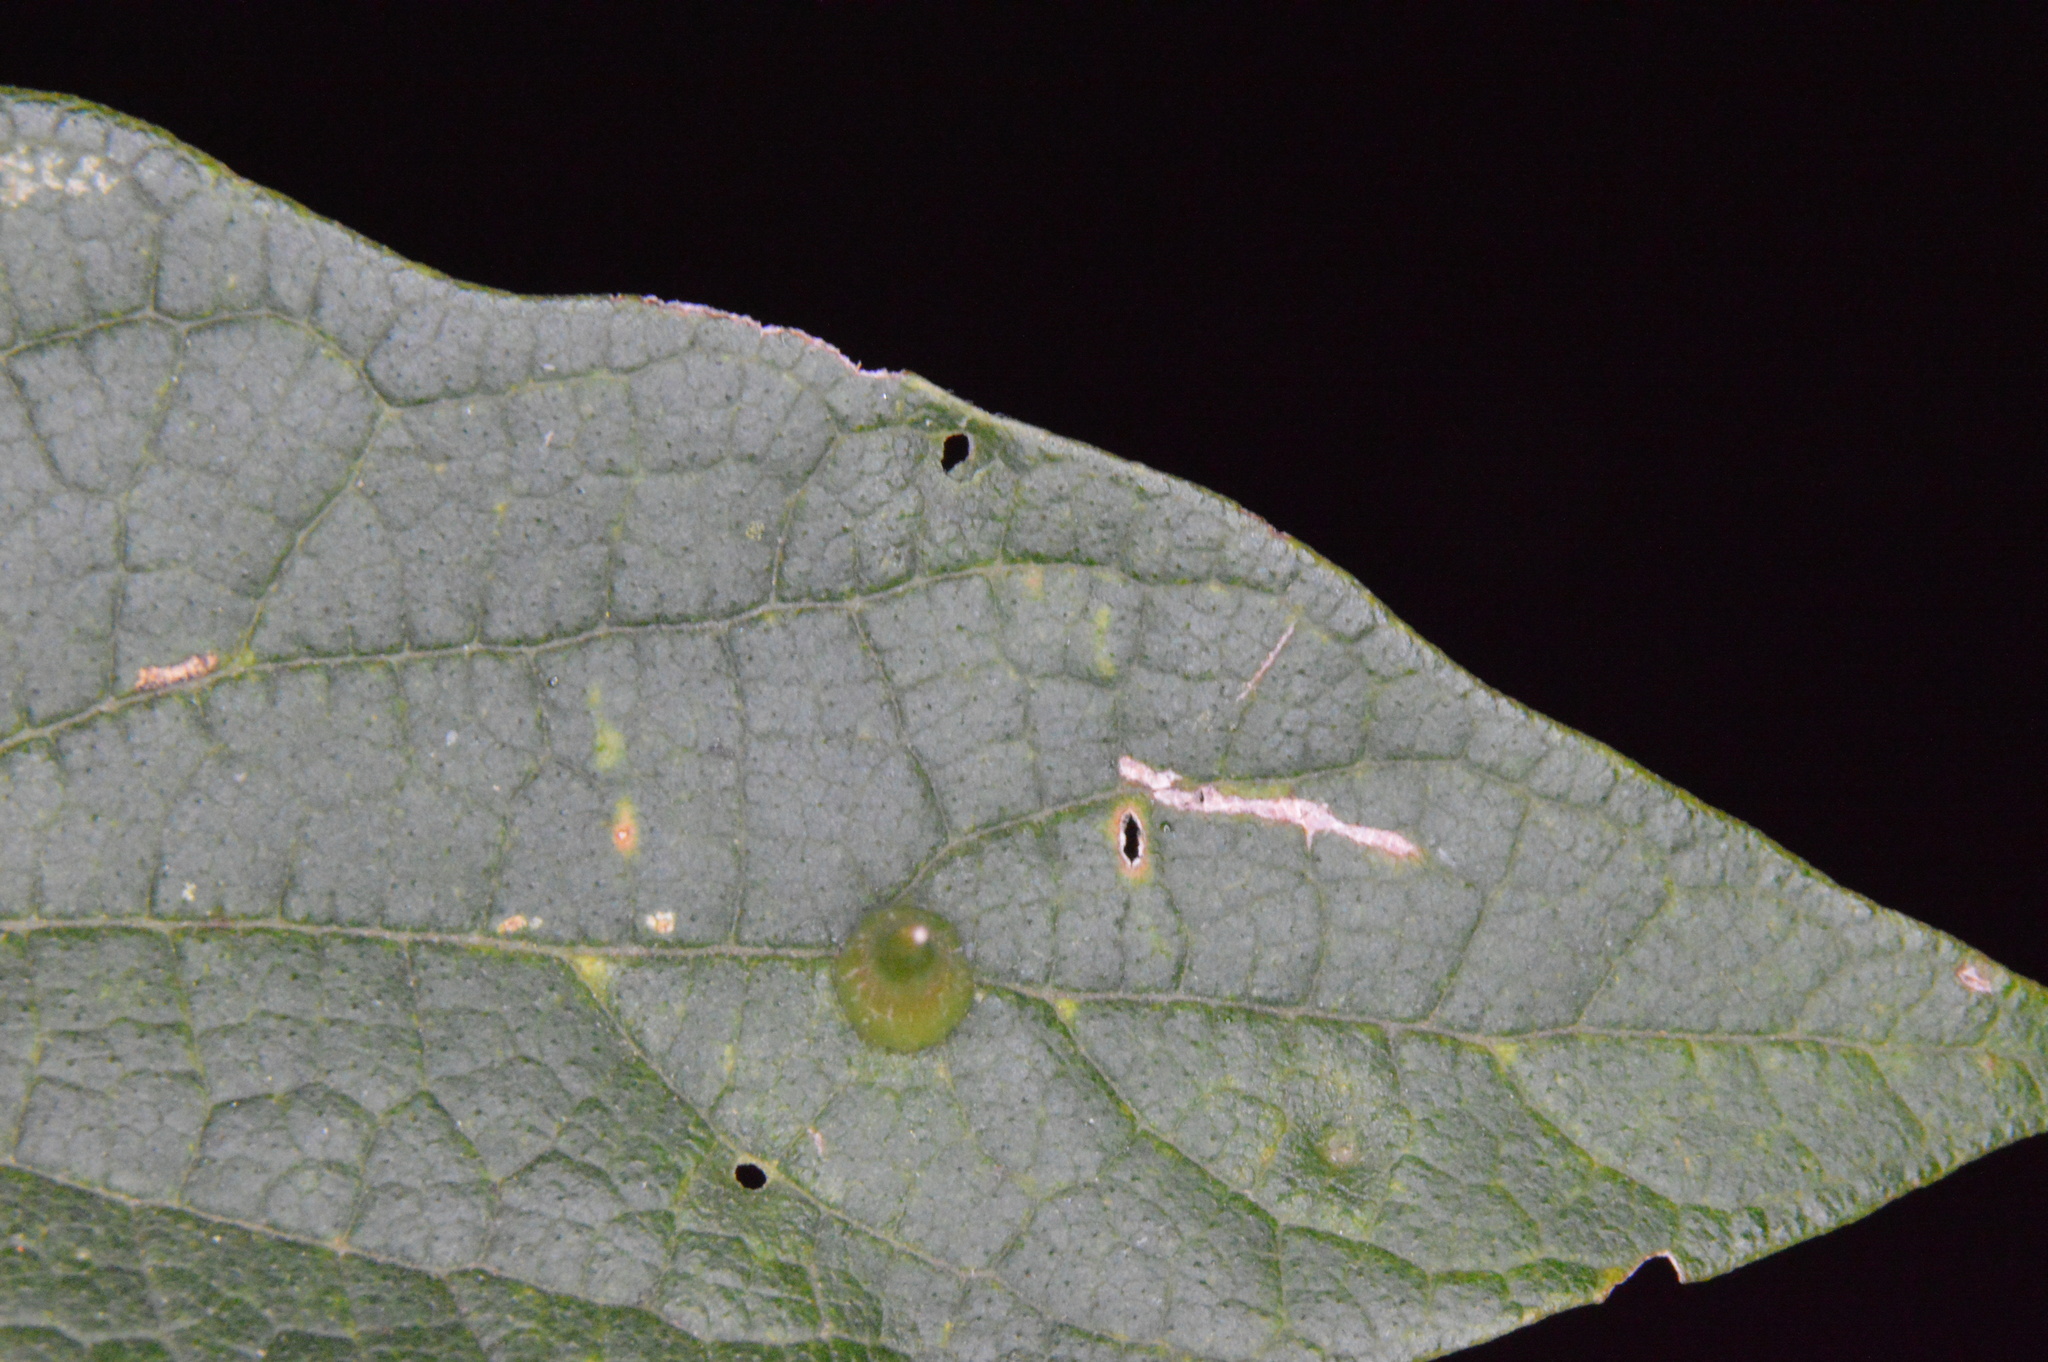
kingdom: Animalia
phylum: Arthropoda
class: Insecta
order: Diptera
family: Cecidomyiidae
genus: Celticecis
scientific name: Celticecis subulata
